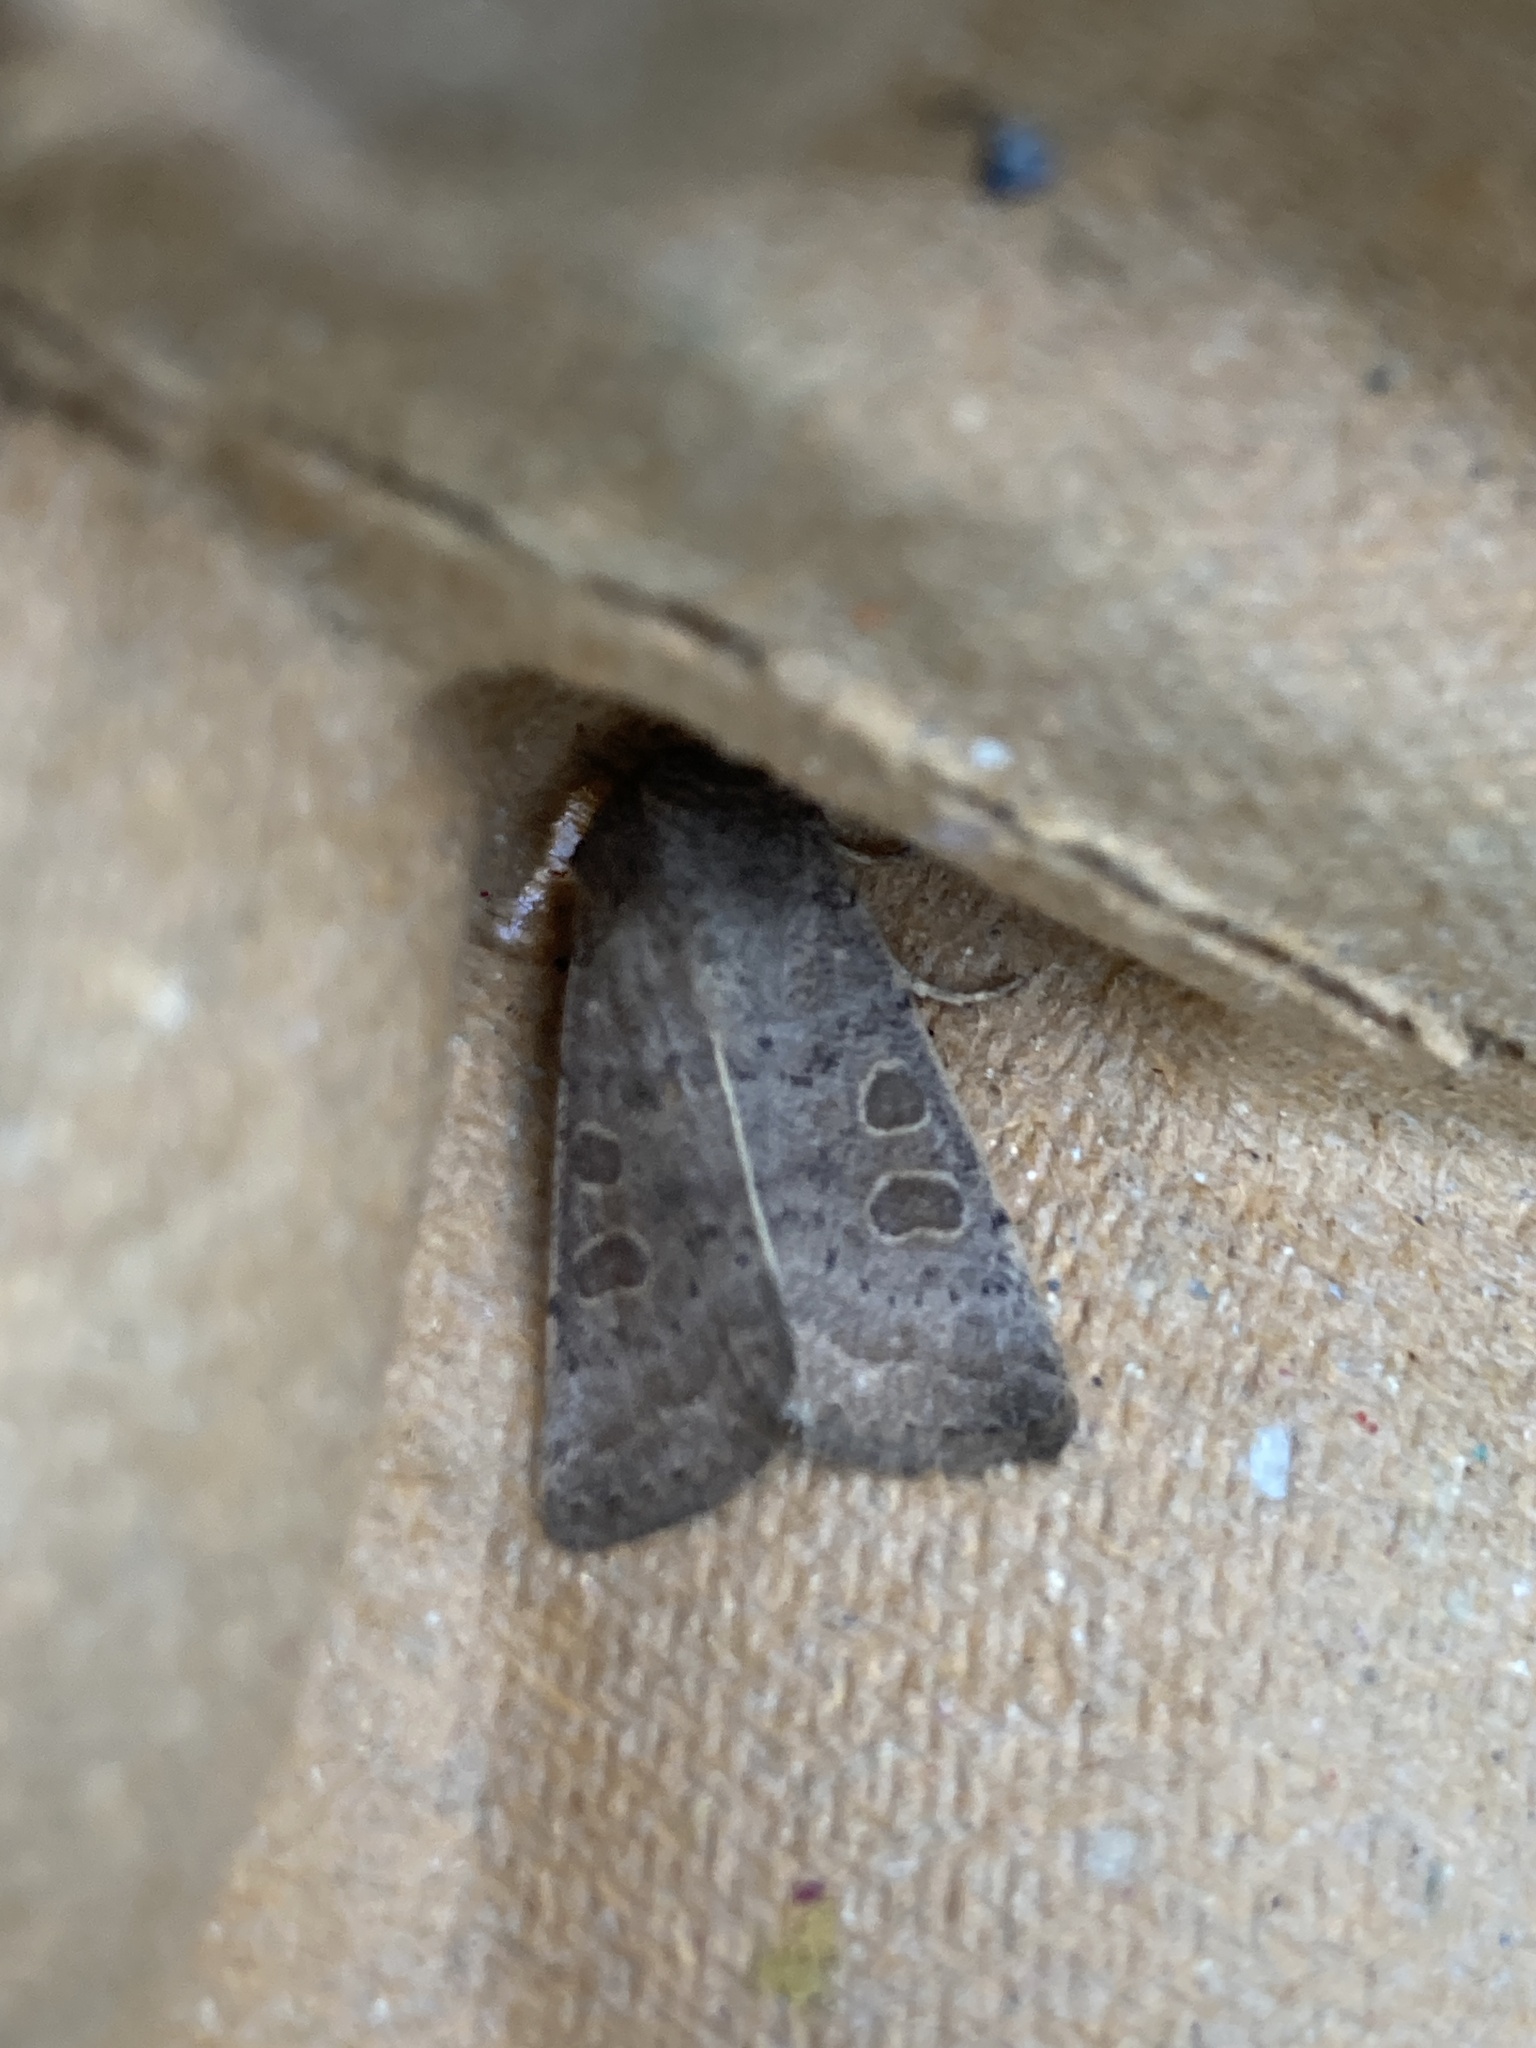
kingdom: Animalia
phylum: Arthropoda
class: Insecta
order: Lepidoptera
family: Noctuidae
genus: Hoplodrina
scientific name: Hoplodrina ambigua
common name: Vine's rustic
